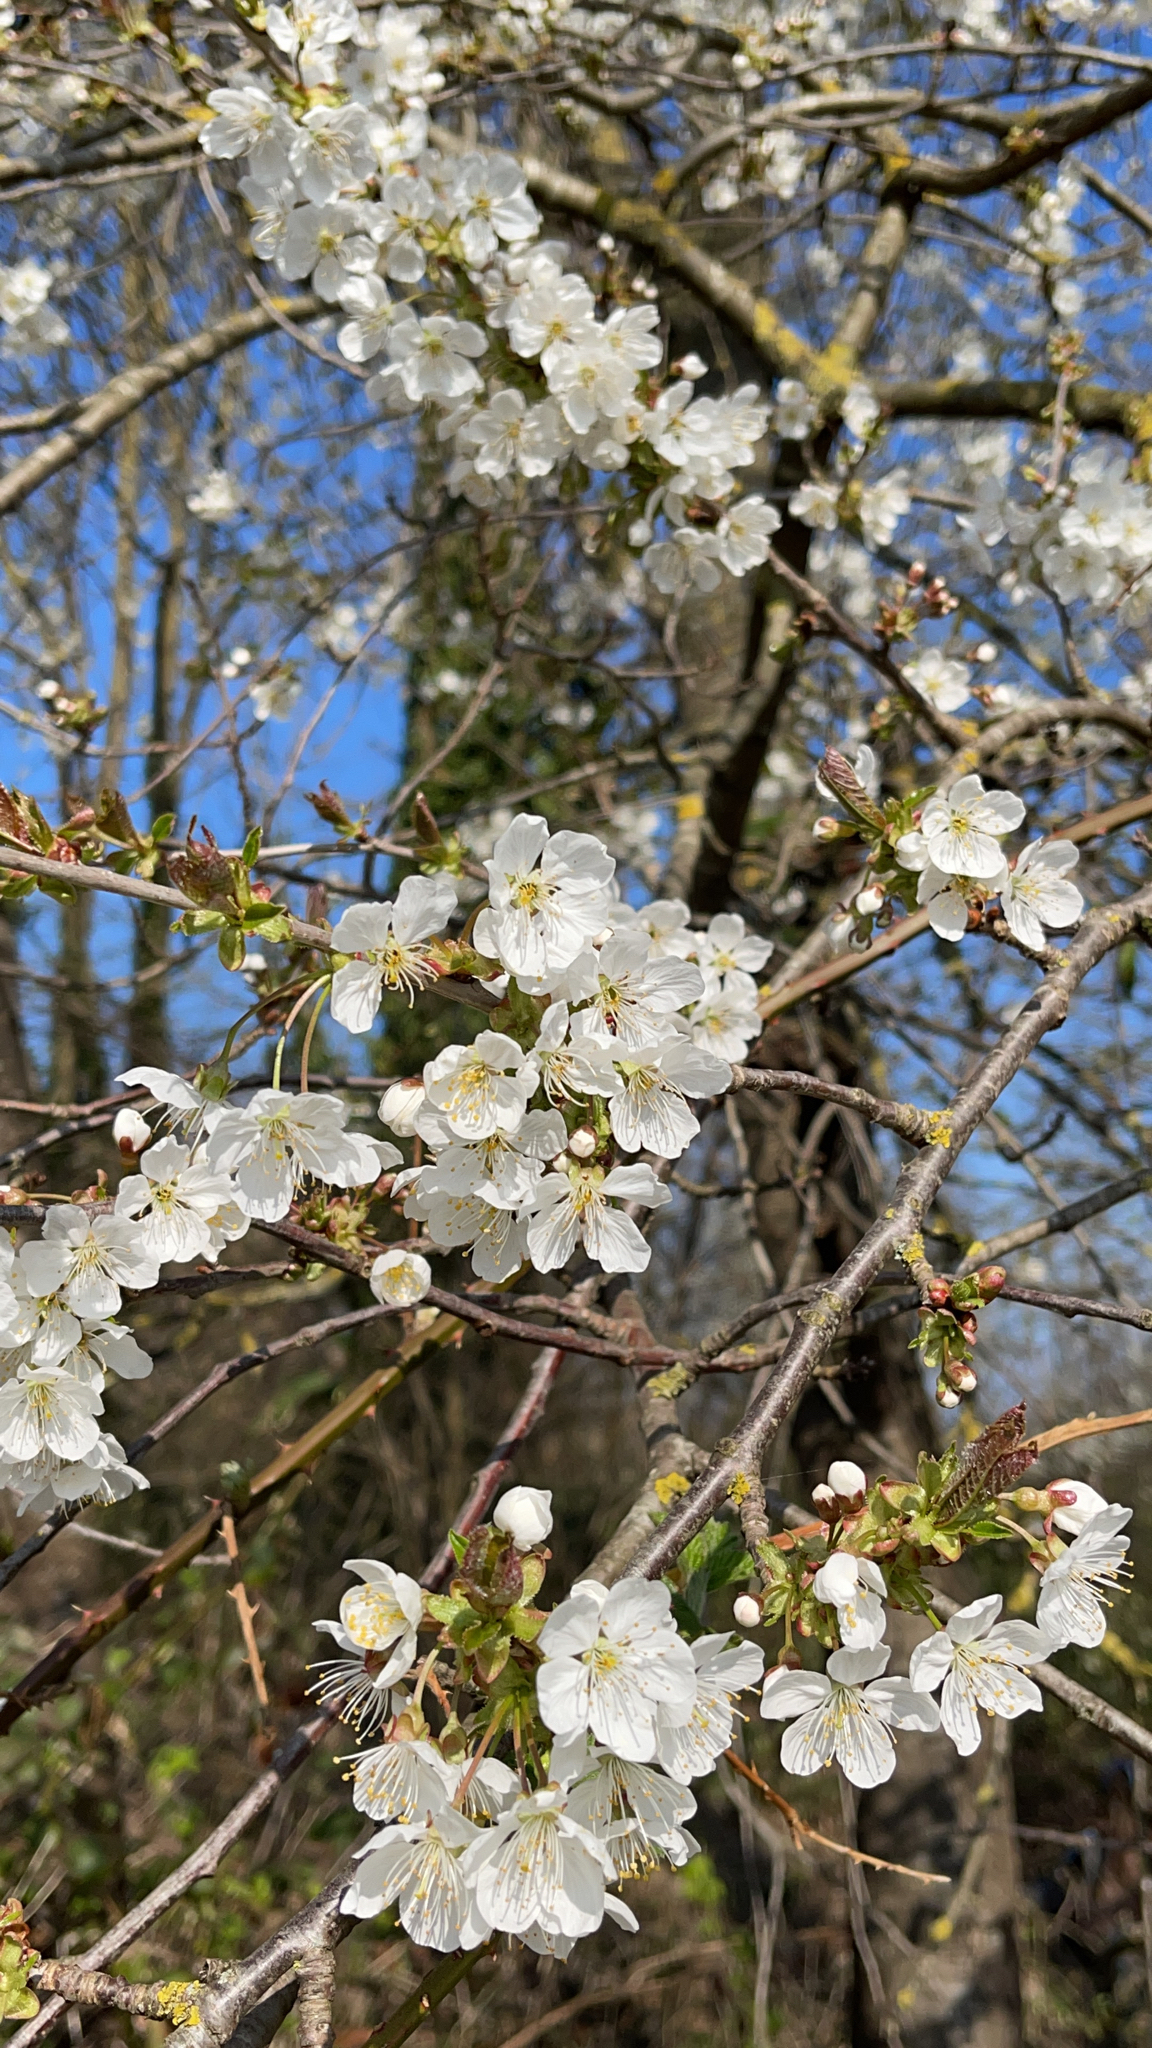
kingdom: Plantae
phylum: Tracheophyta
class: Magnoliopsida
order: Rosales
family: Rosaceae
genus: Prunus
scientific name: Prunus avium
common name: Sweet cherry
